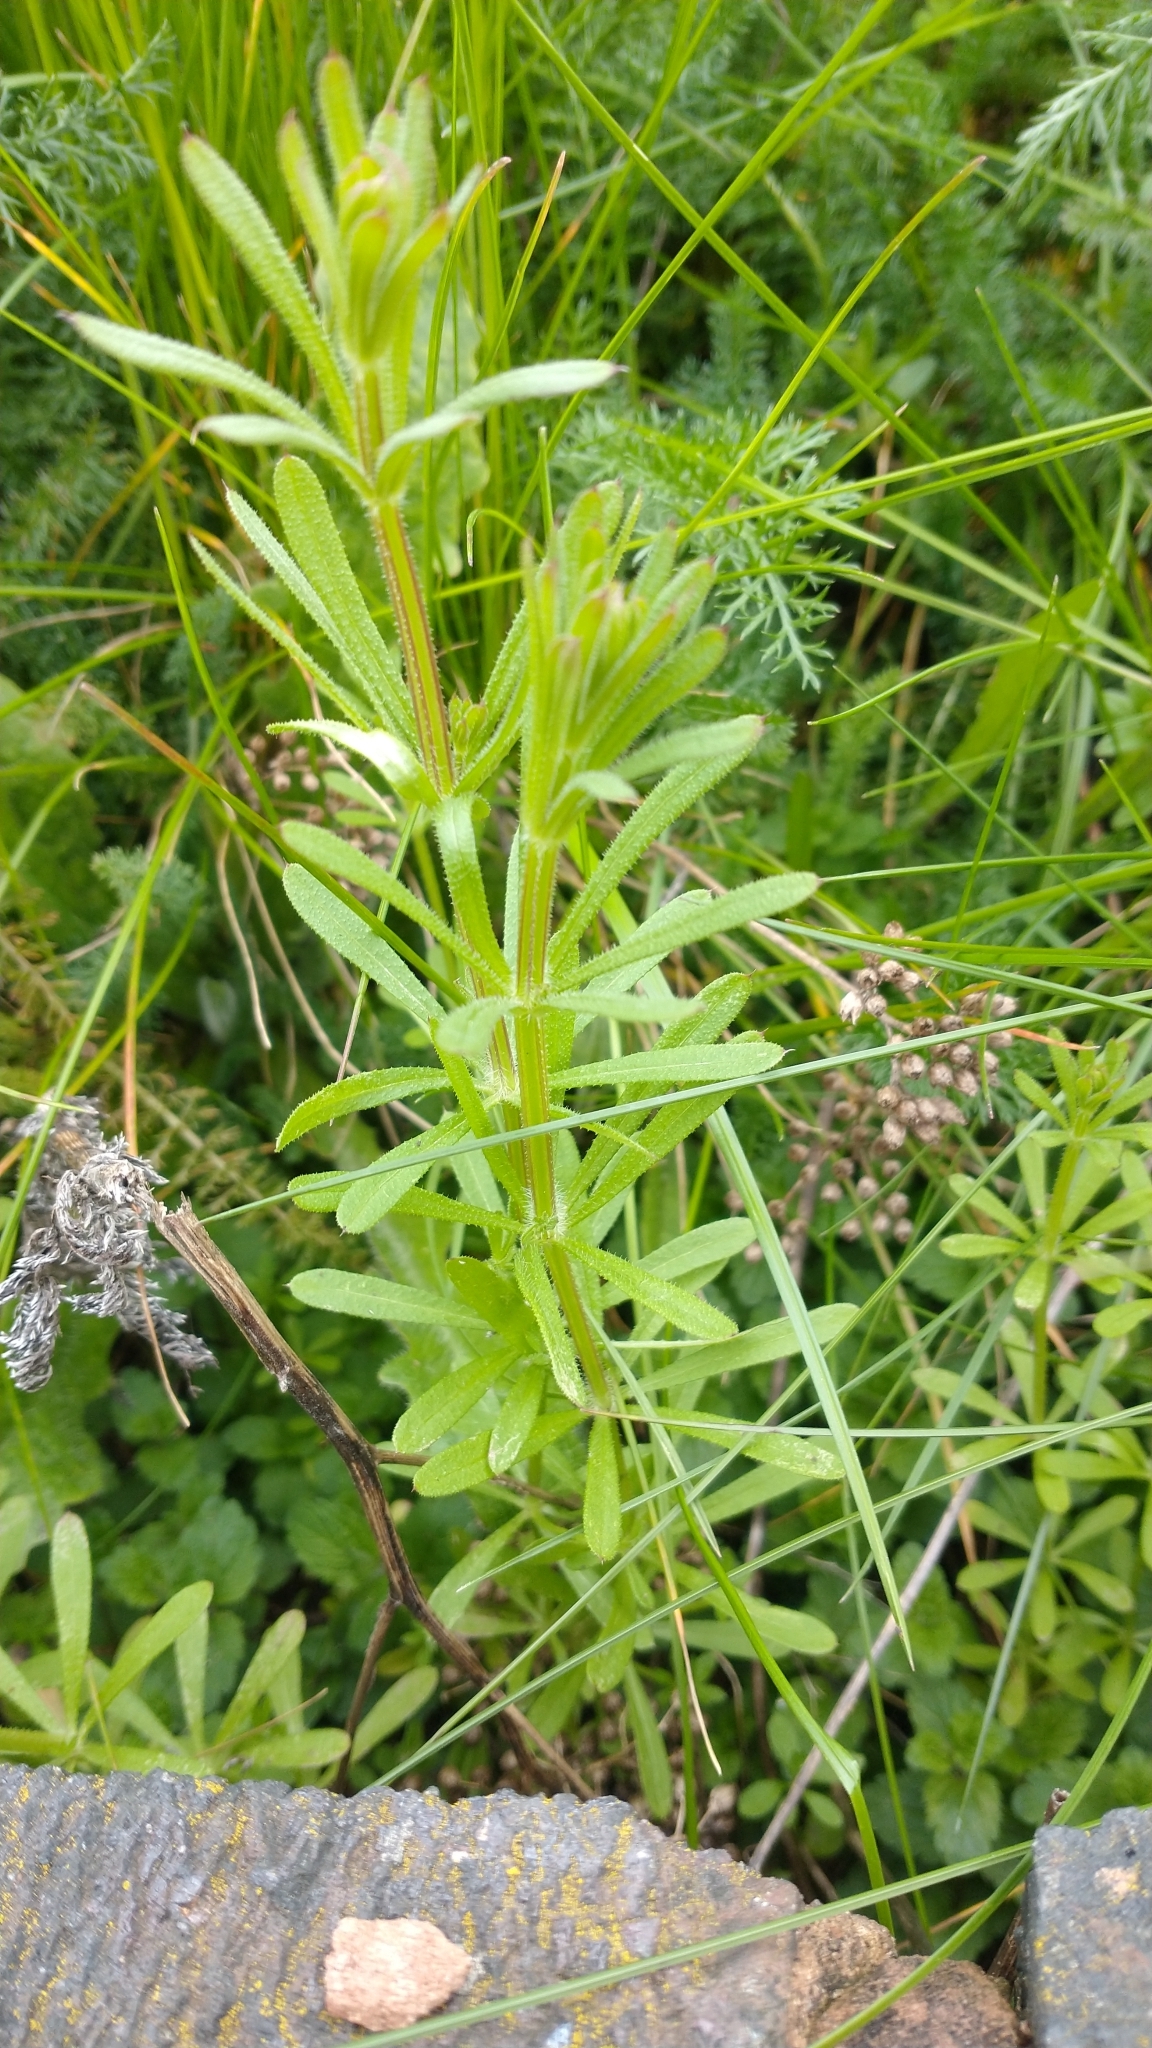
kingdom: Plantae
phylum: Tracheophyta
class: Magnoliopsida
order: Gentianales
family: Rubiaceae
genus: Galium
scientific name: Galium aparine
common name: Cleavers
